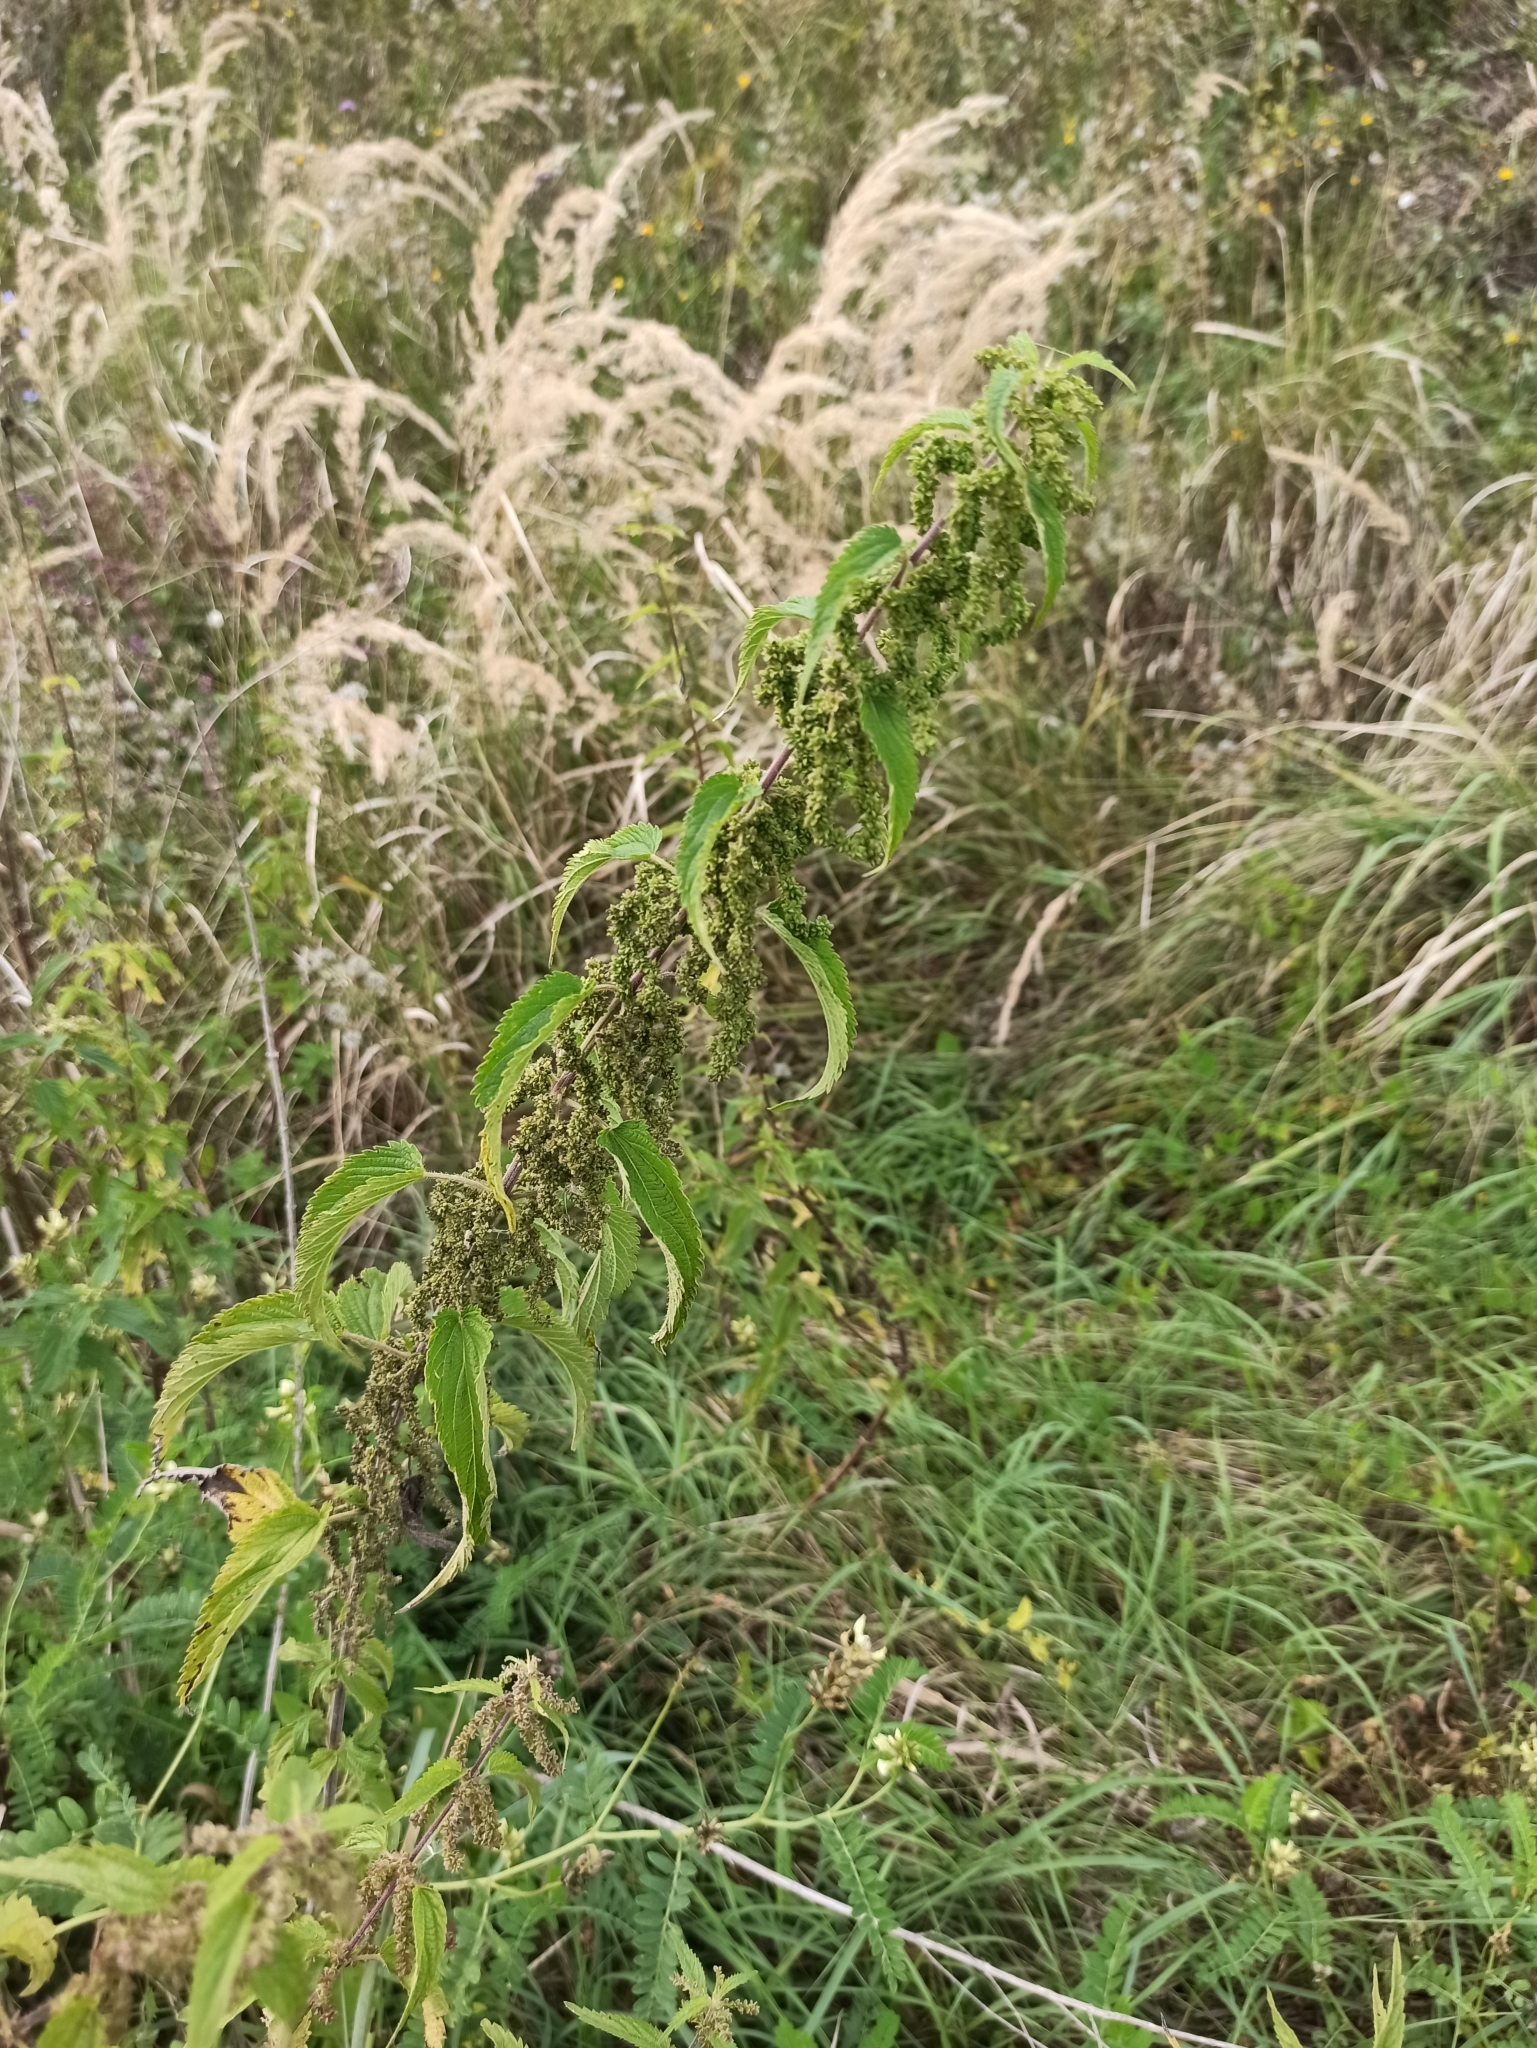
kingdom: Plantae
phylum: Tracheophyta
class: Magnoliopsida
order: Rosales
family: Urticaceae
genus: Urtica
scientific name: Urtica dioica
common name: Common nettle
